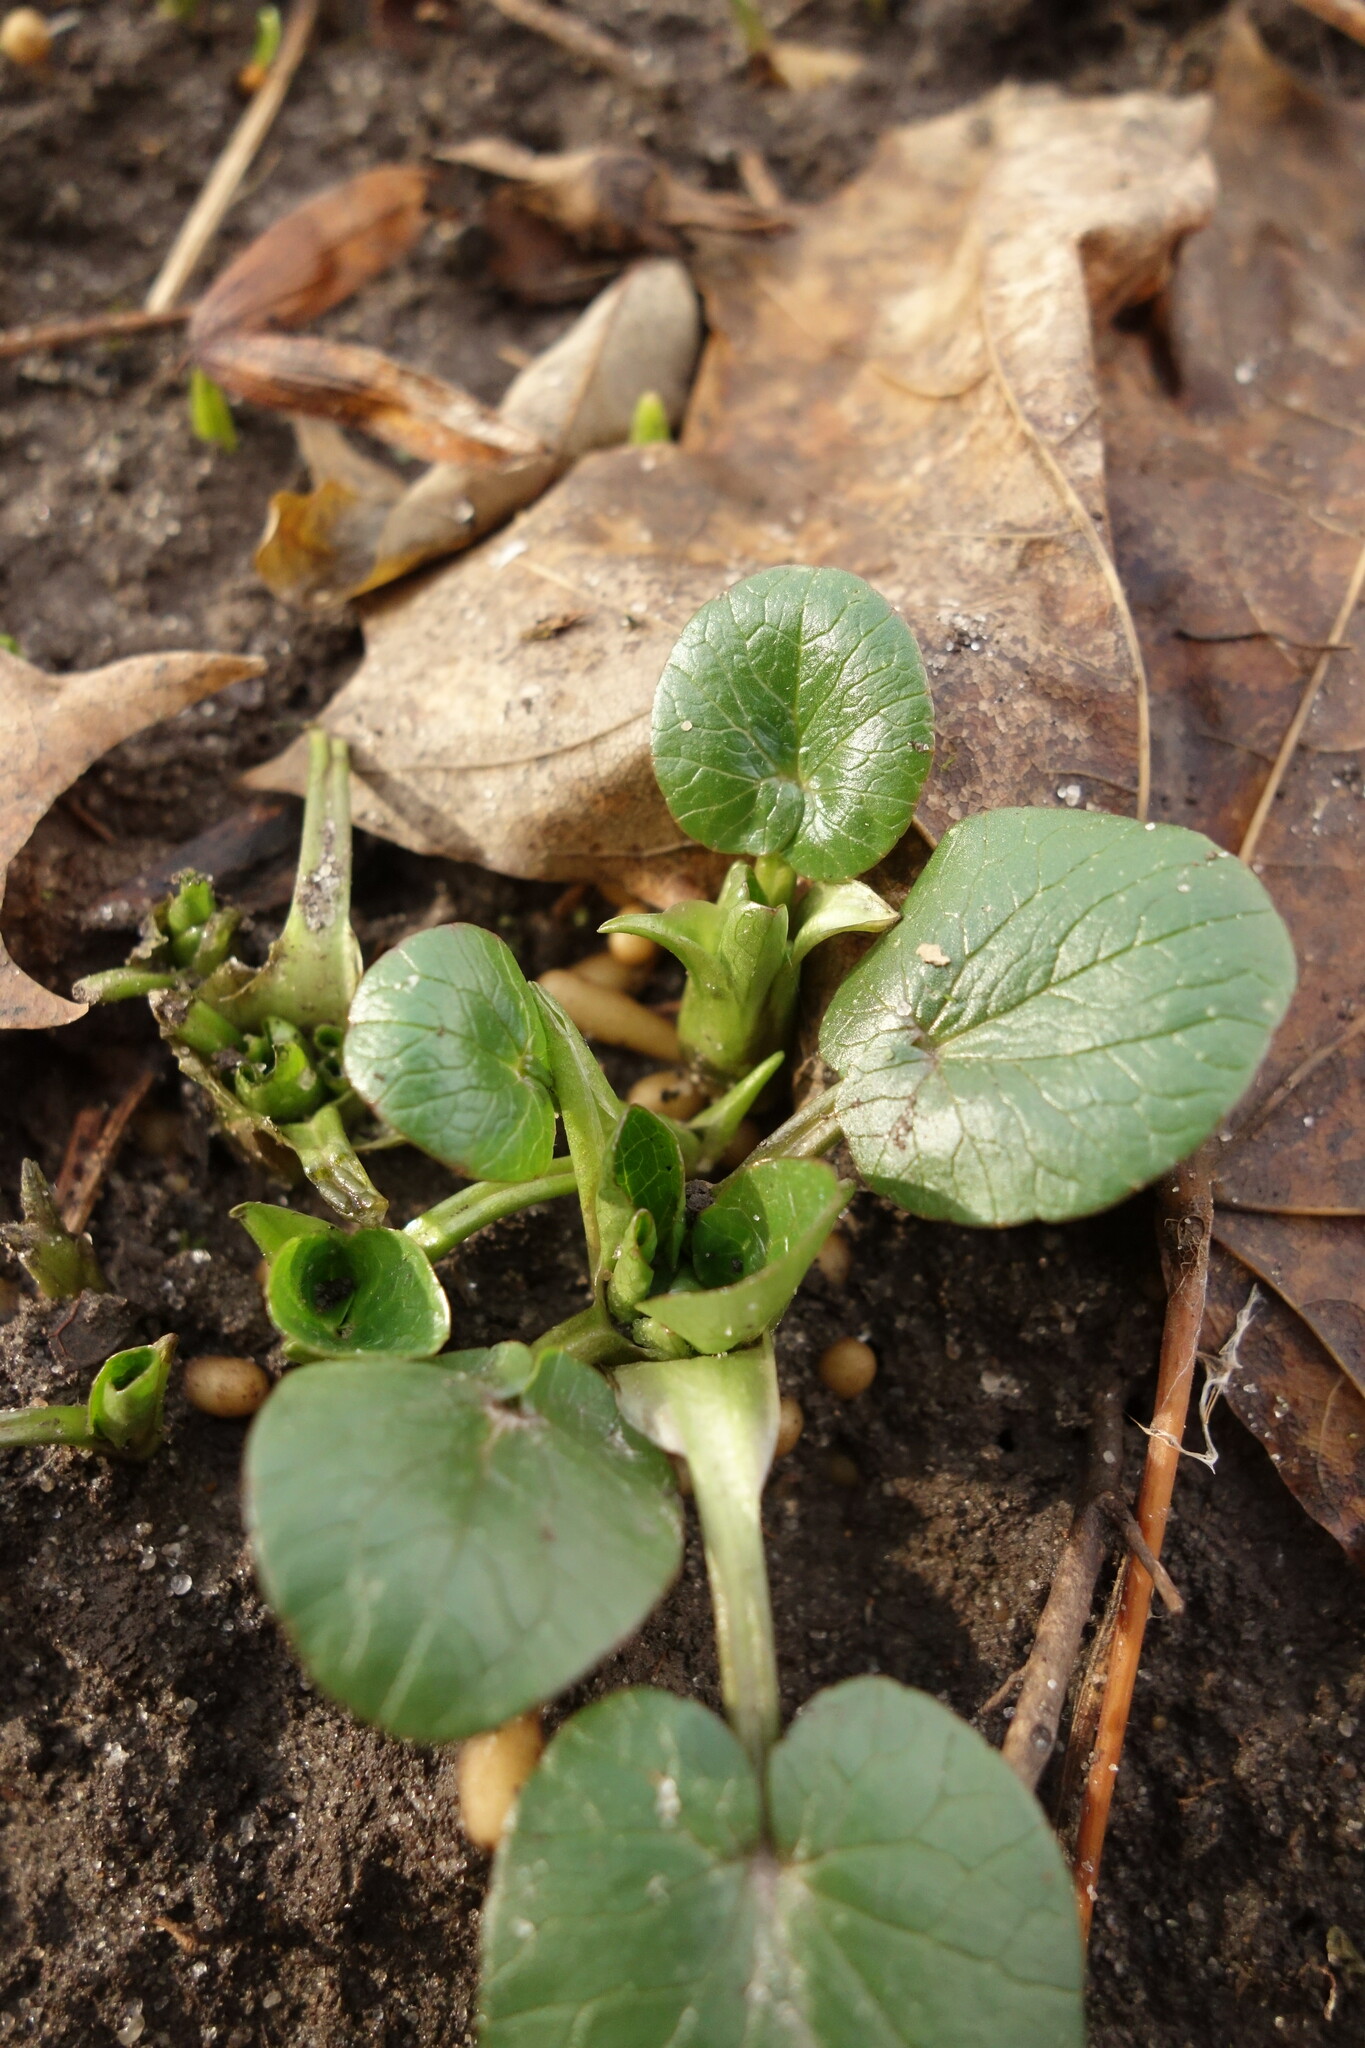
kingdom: Plantae
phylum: Tracheophyta
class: Magnoliopsida
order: Ranunculales
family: Ranunculaceae
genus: Ficaria
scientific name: Ficaria verna
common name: Lesser celandine
